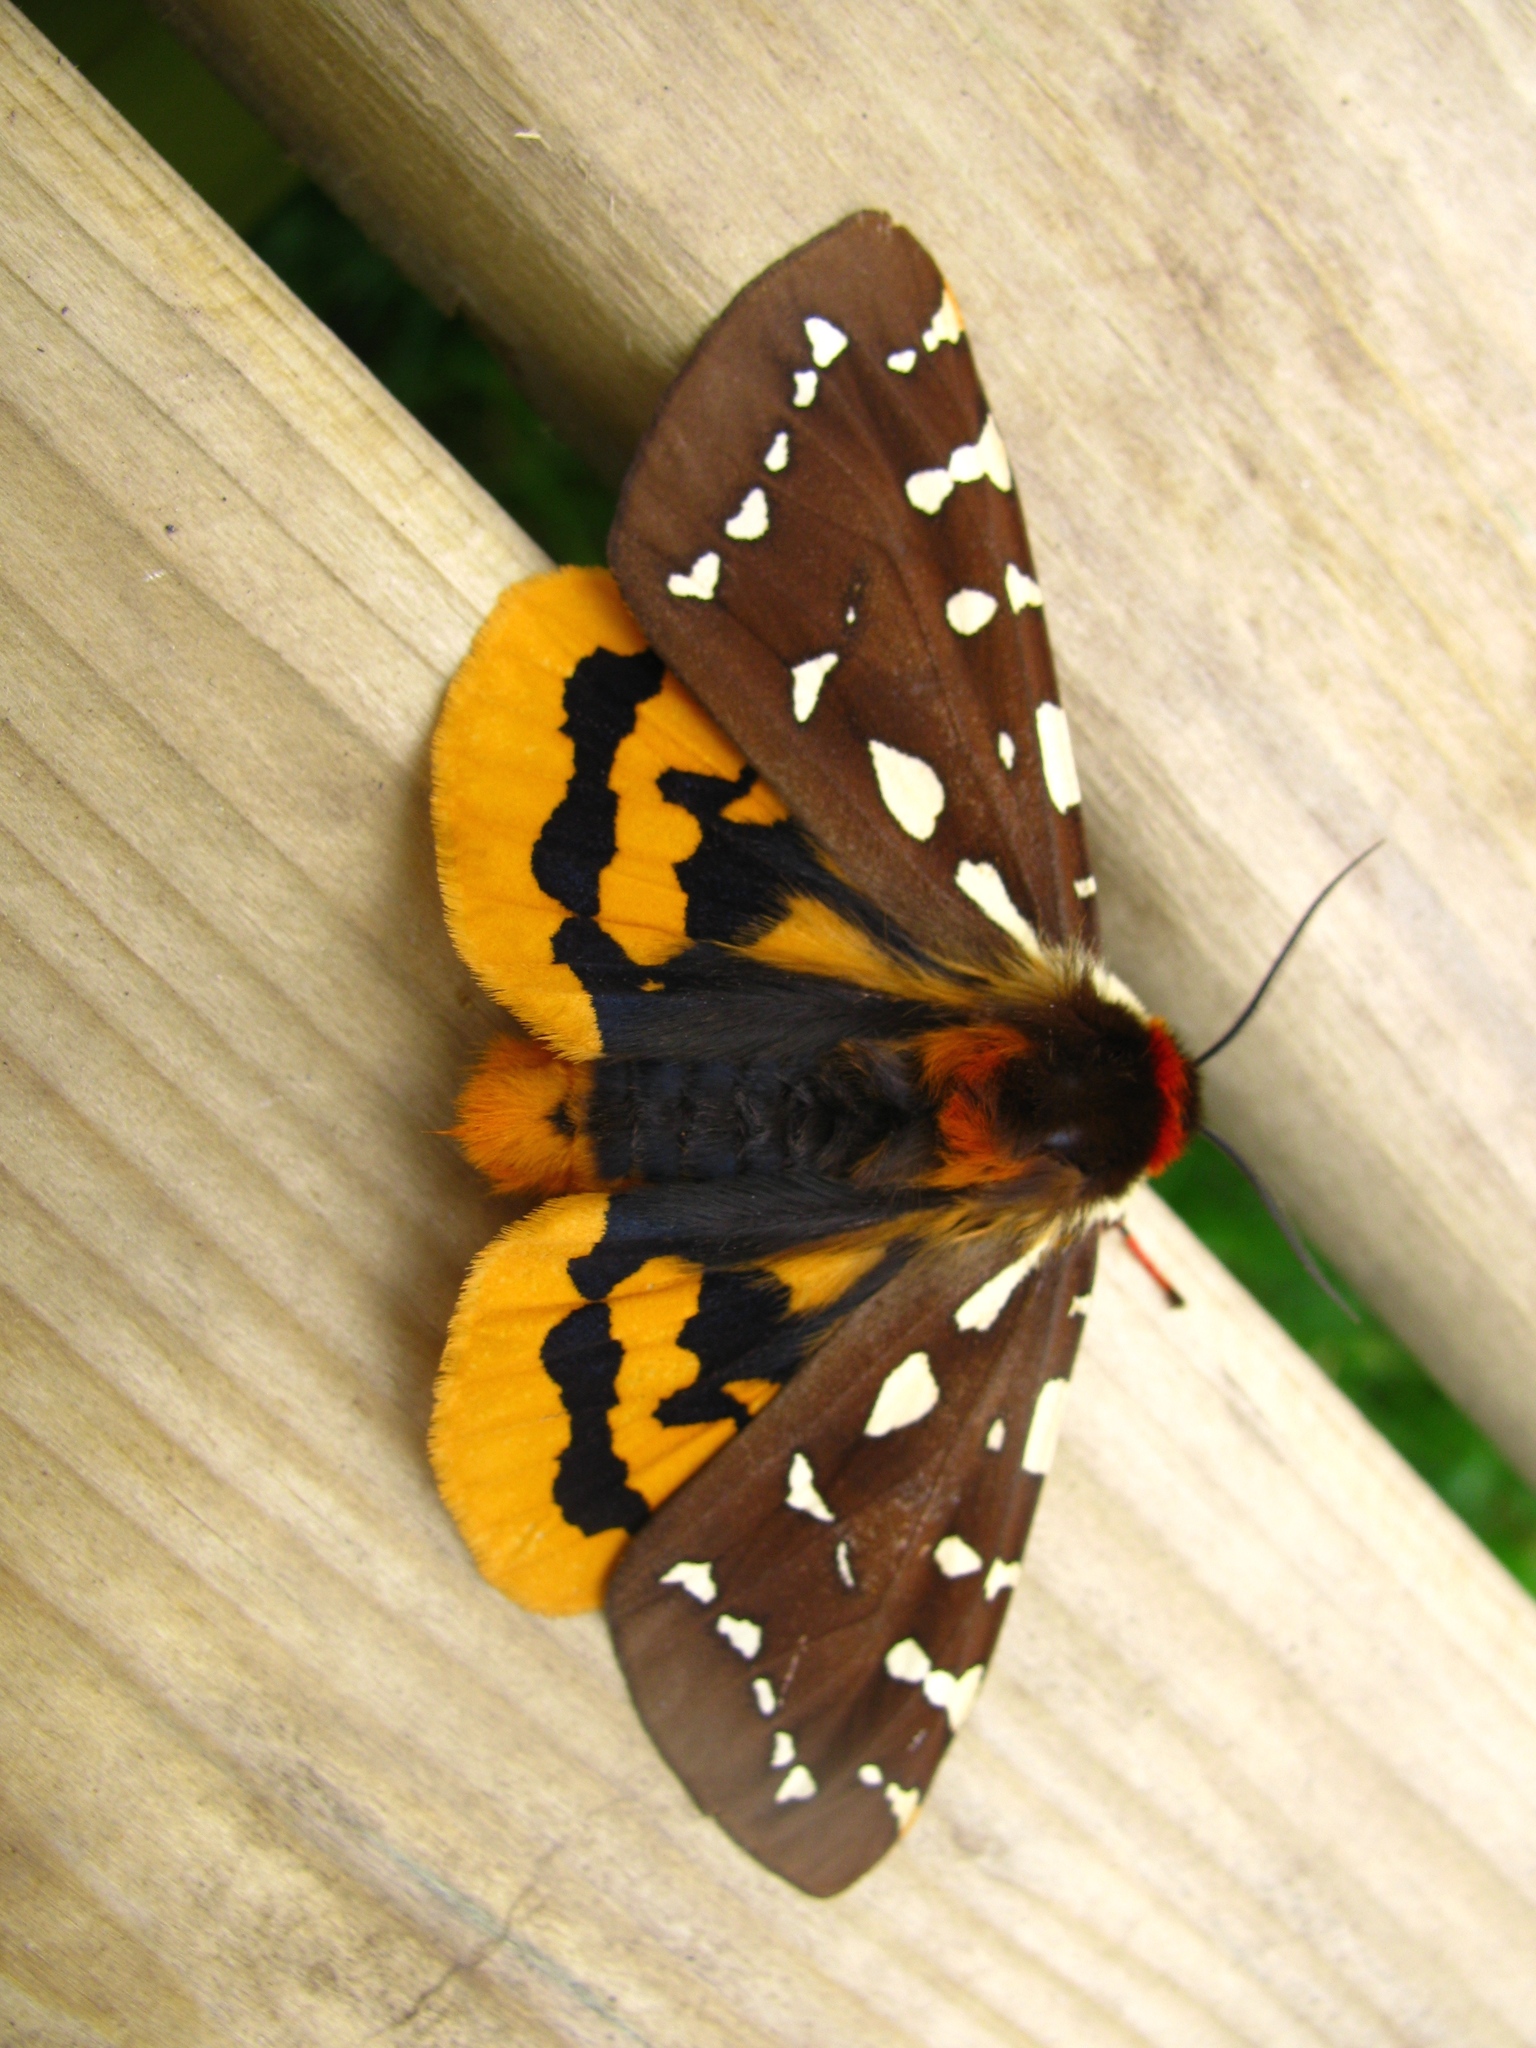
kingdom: Animalia
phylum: Arthropoda
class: Insecta
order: Lepidoptera
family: Erebidae
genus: Arctia
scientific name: Arctia parthenos
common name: St. lawrence tiger moth
